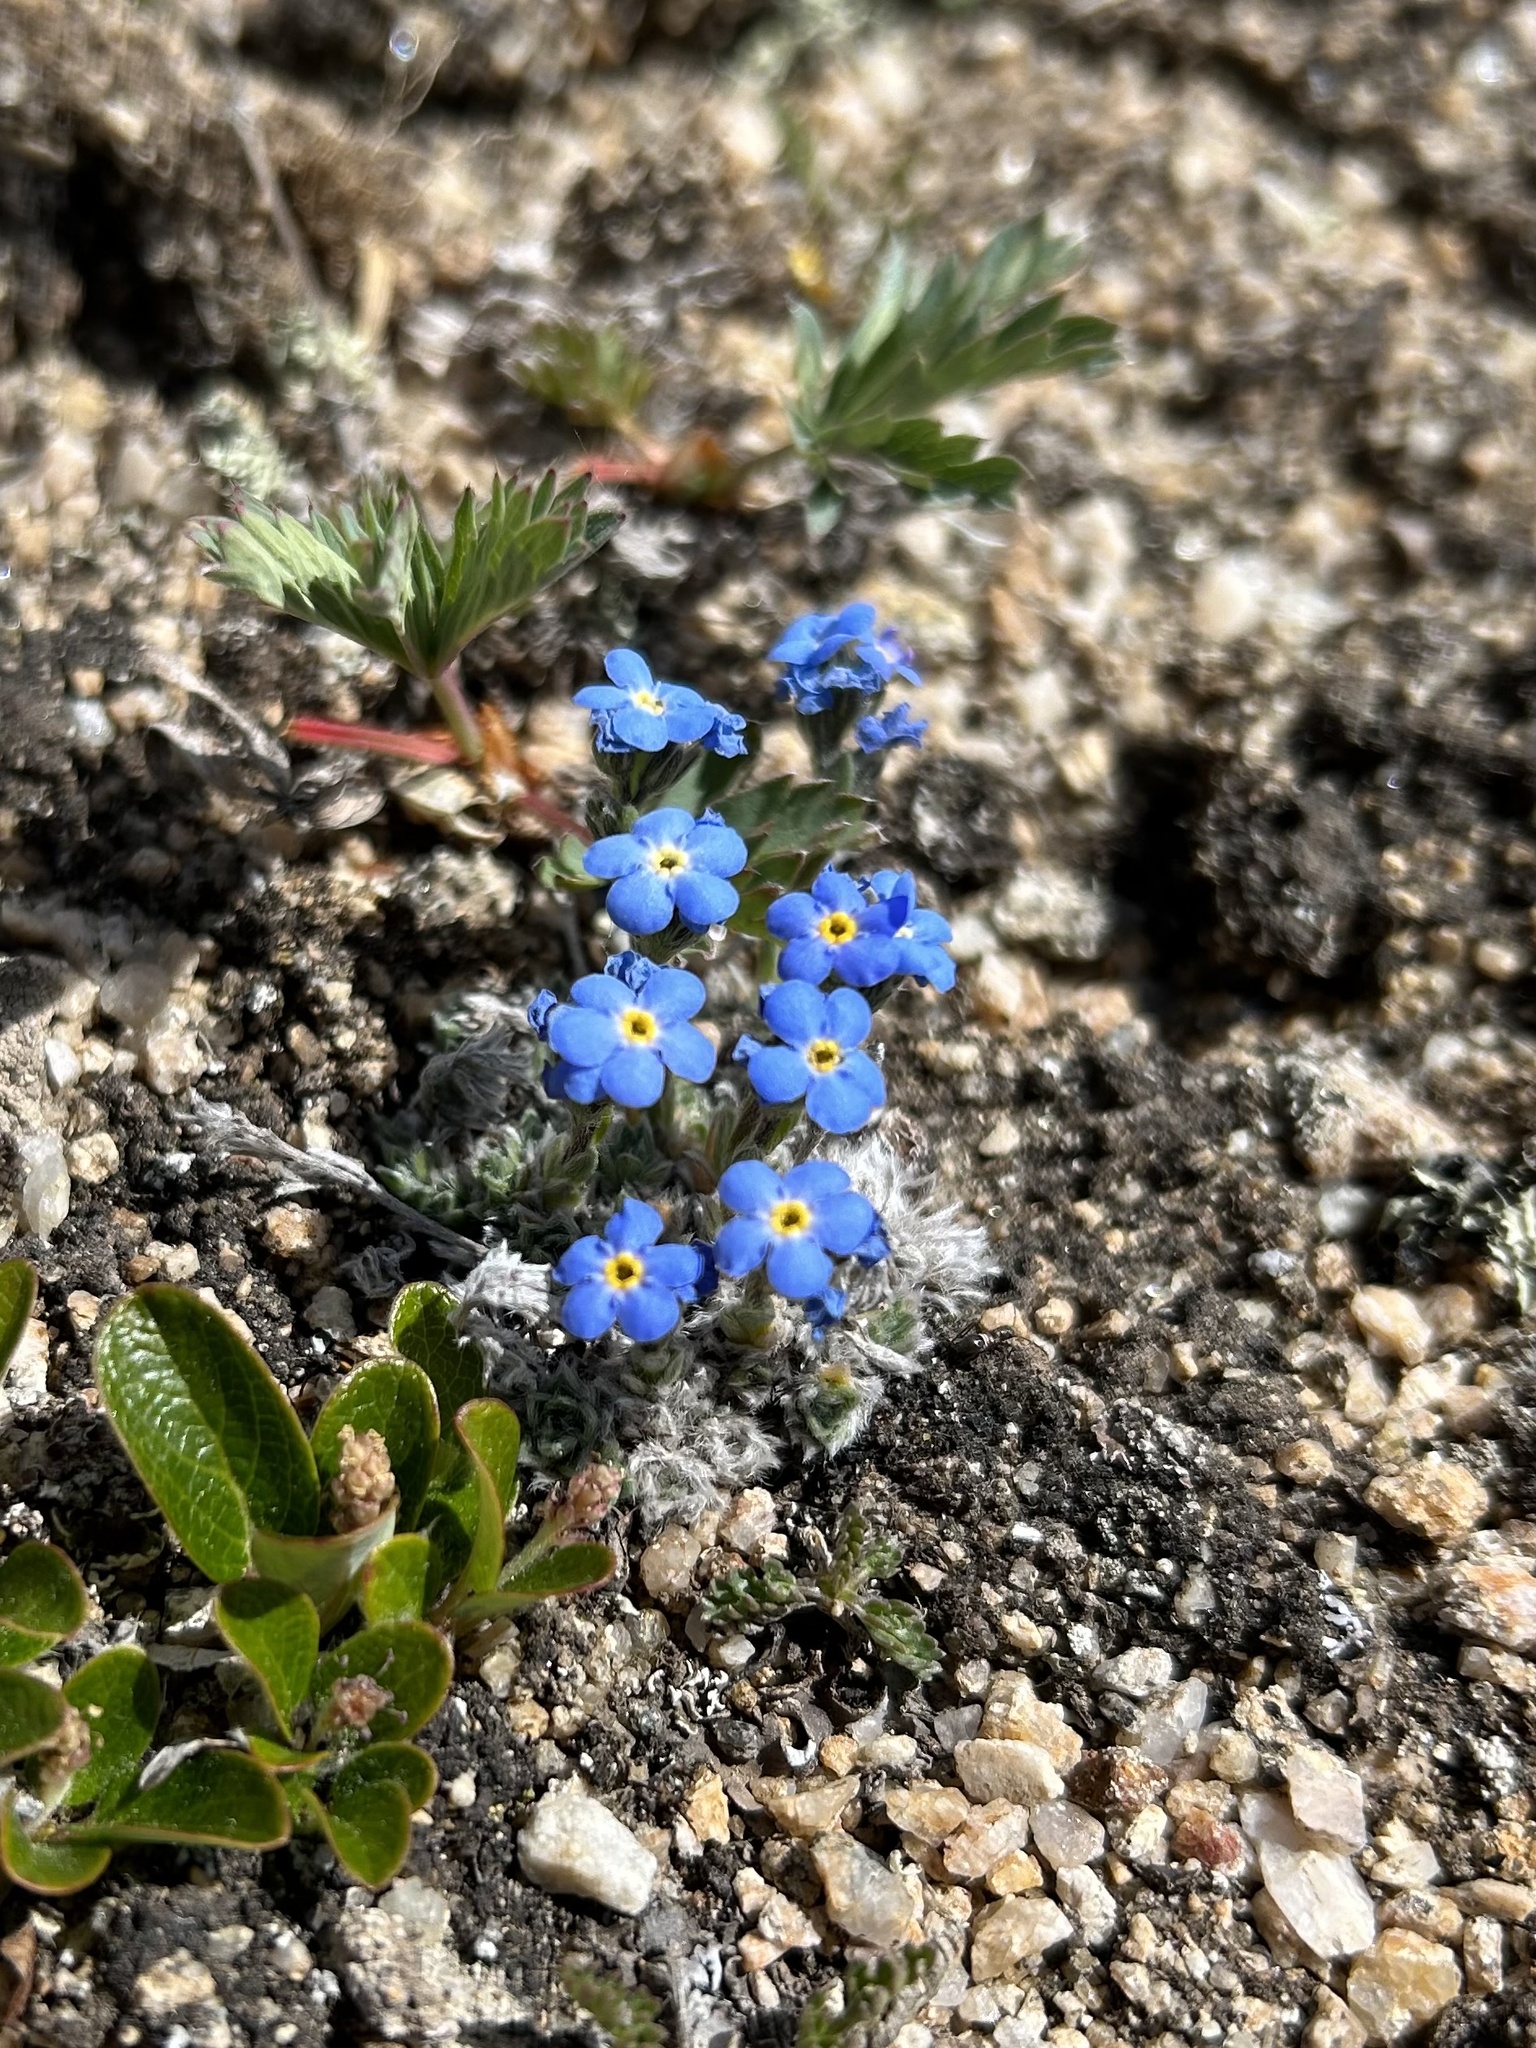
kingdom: Plantae
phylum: Tracheophyta
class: Magnoliopsida
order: Boraginales
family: Boraginaceae
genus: Eritrichium
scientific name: Eritrichium argenteum
